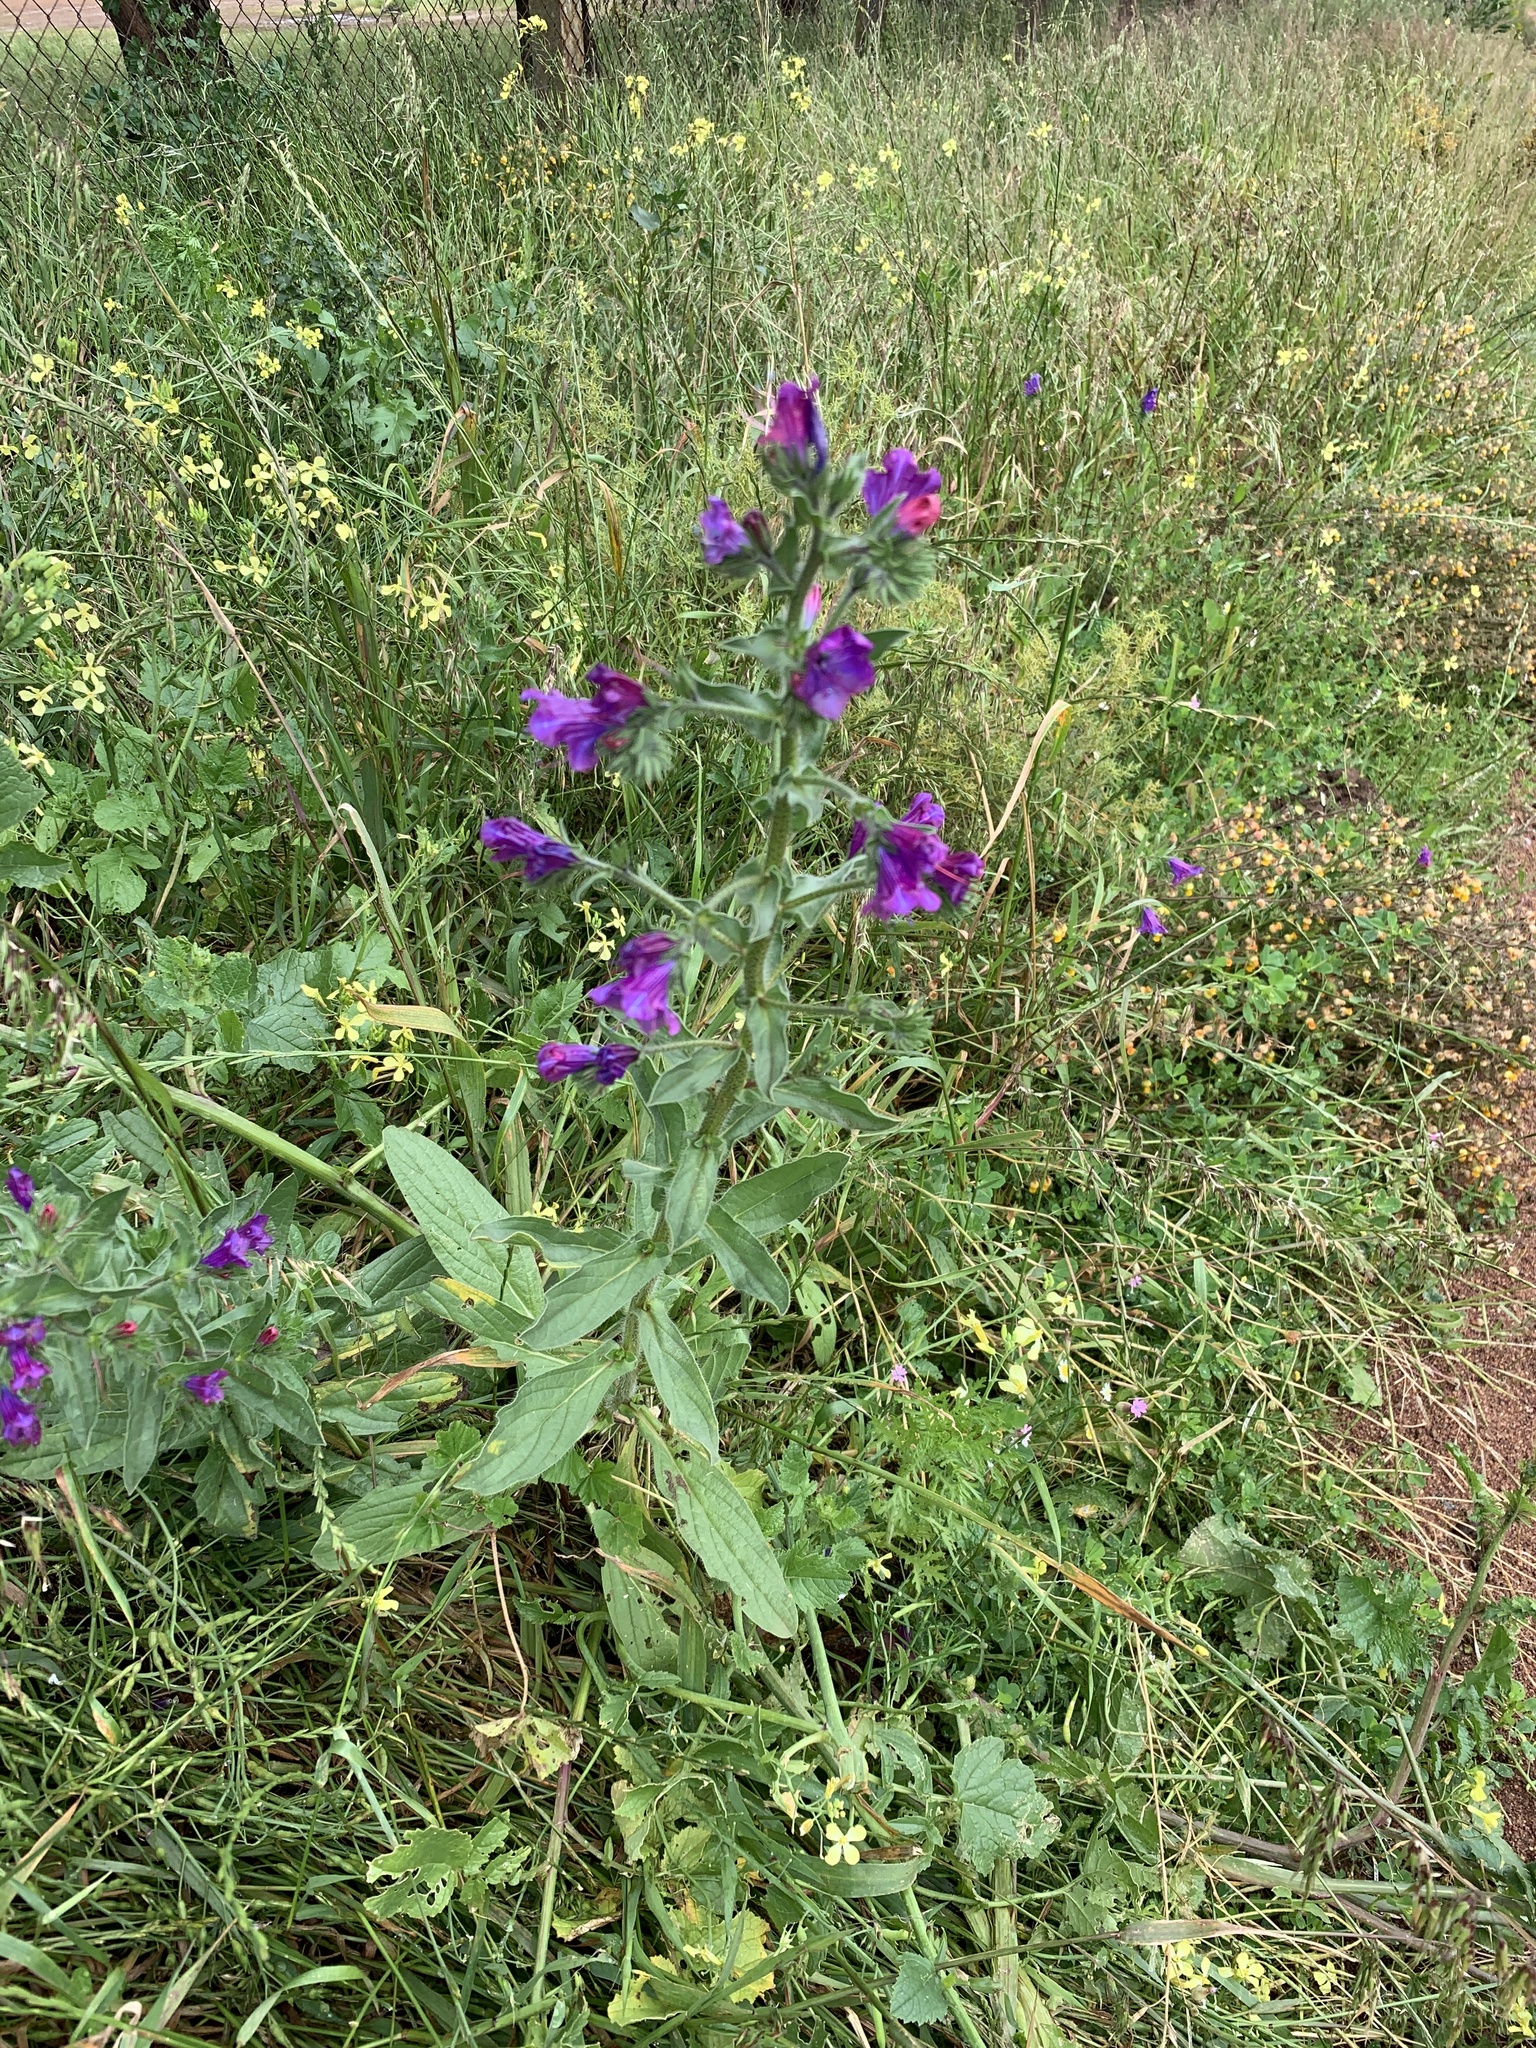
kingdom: Plantae
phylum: Tracheophyta
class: Magnoliopsida
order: Boraginales
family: Boraginaceae
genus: Echium
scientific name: Echium plantagineum
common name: Purple viper's-bugloss
